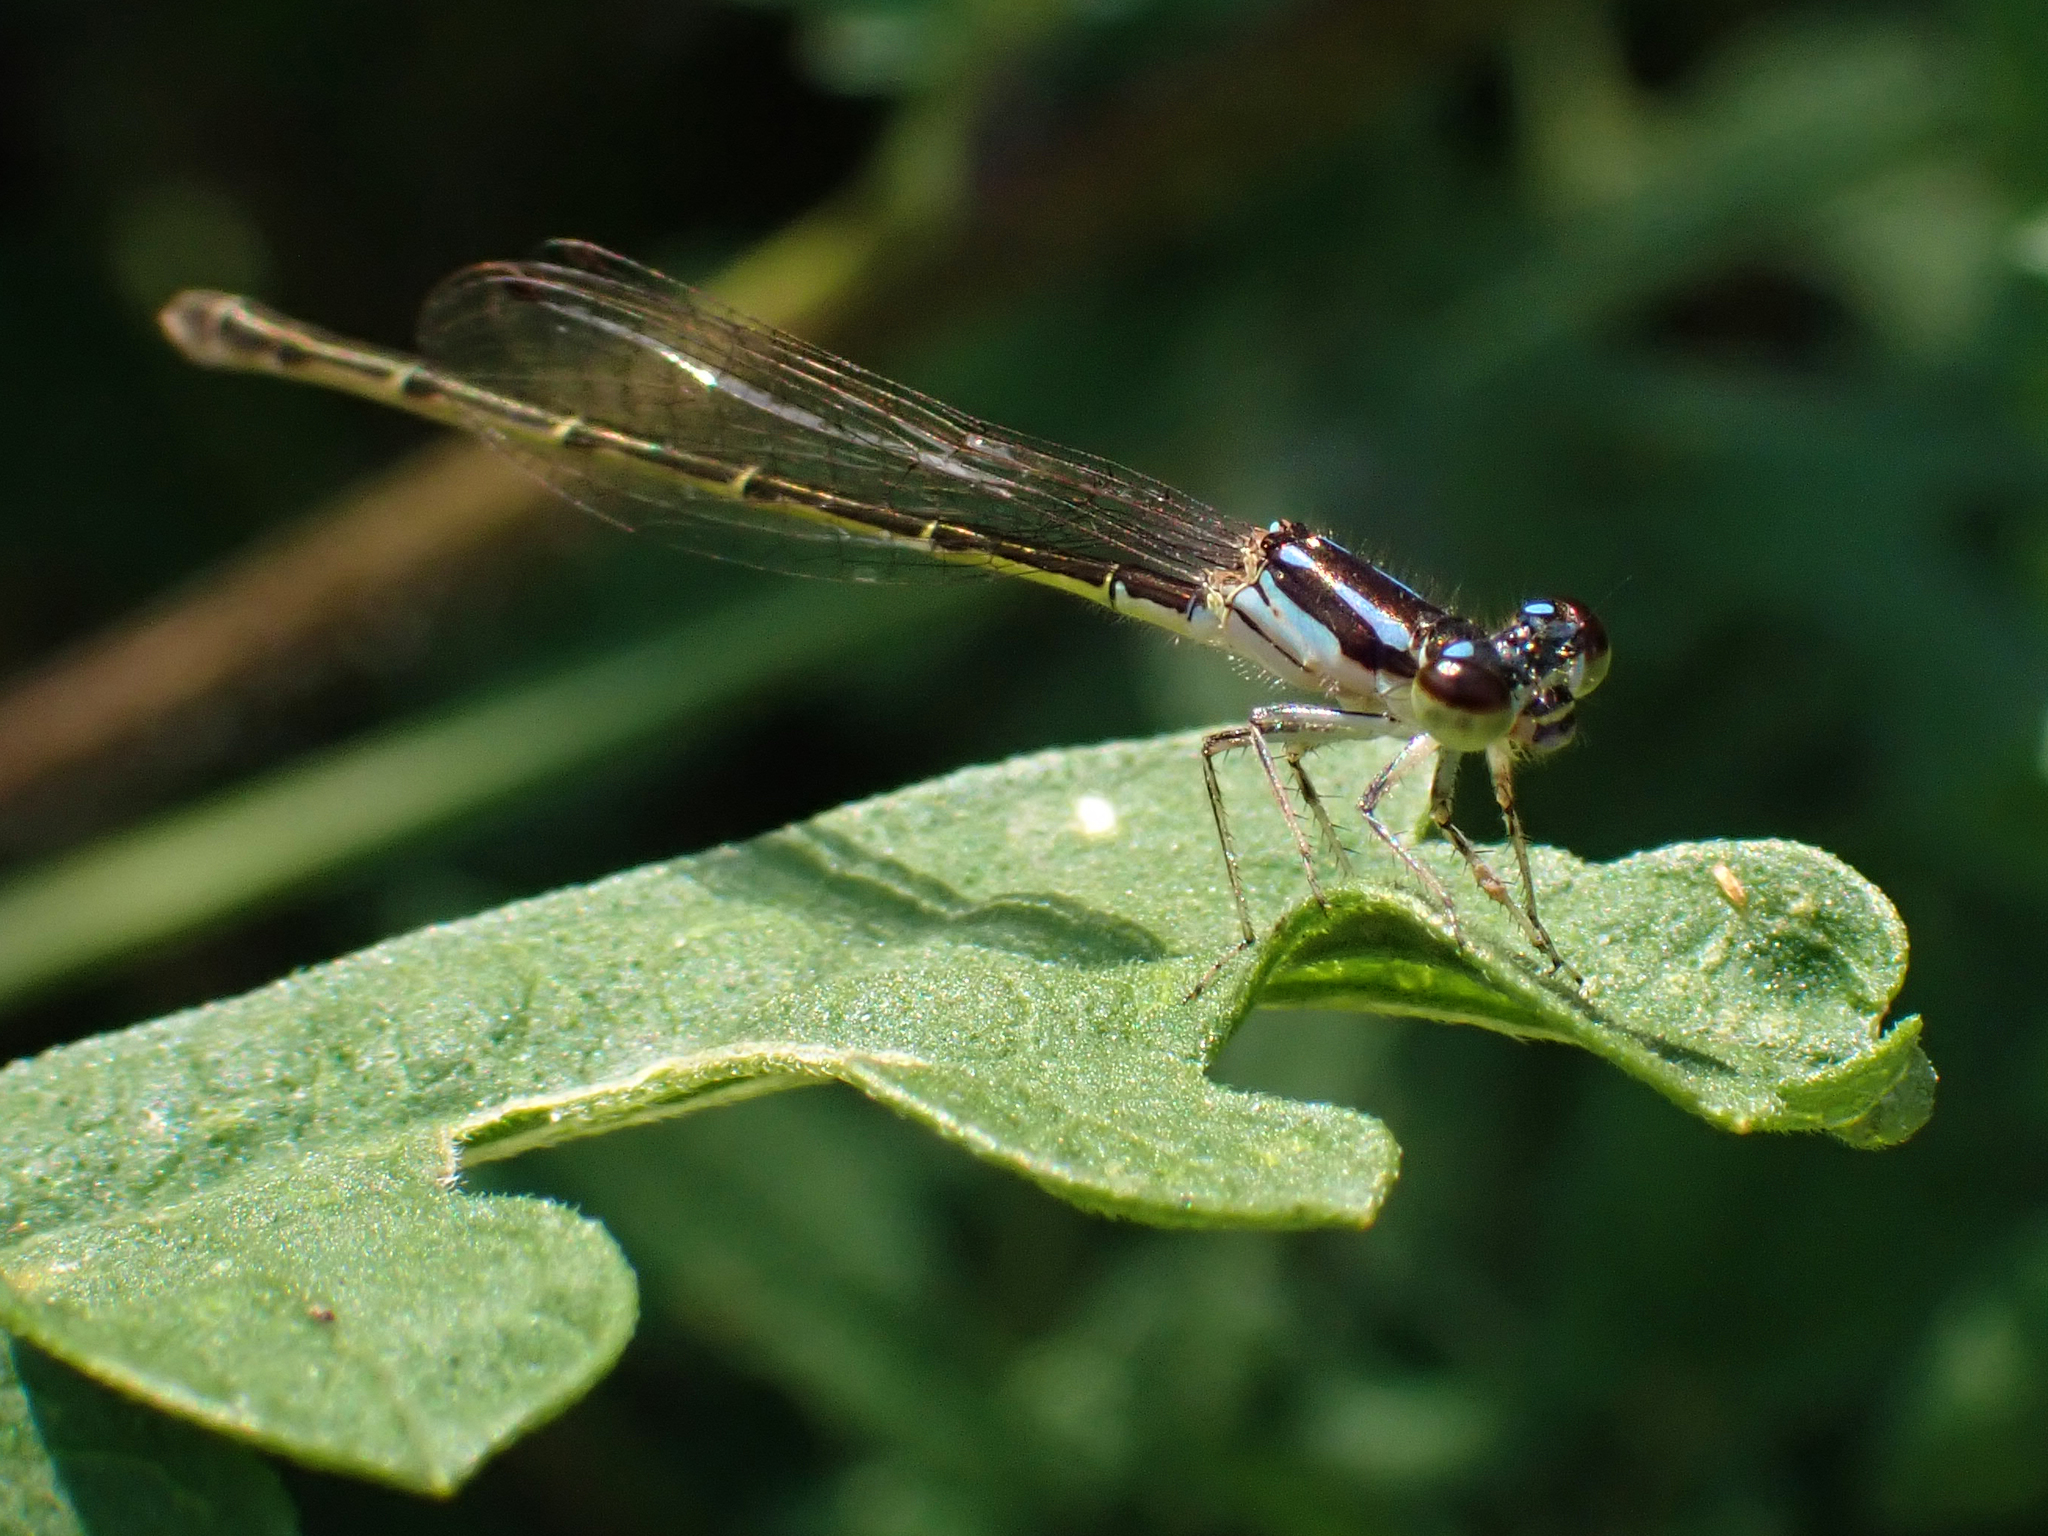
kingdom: Animalia
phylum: Arthropoda
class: Insecta
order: Odonata
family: Coenagrionidae
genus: Ischnura
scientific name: Ischnura posita
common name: Fragile forktail
